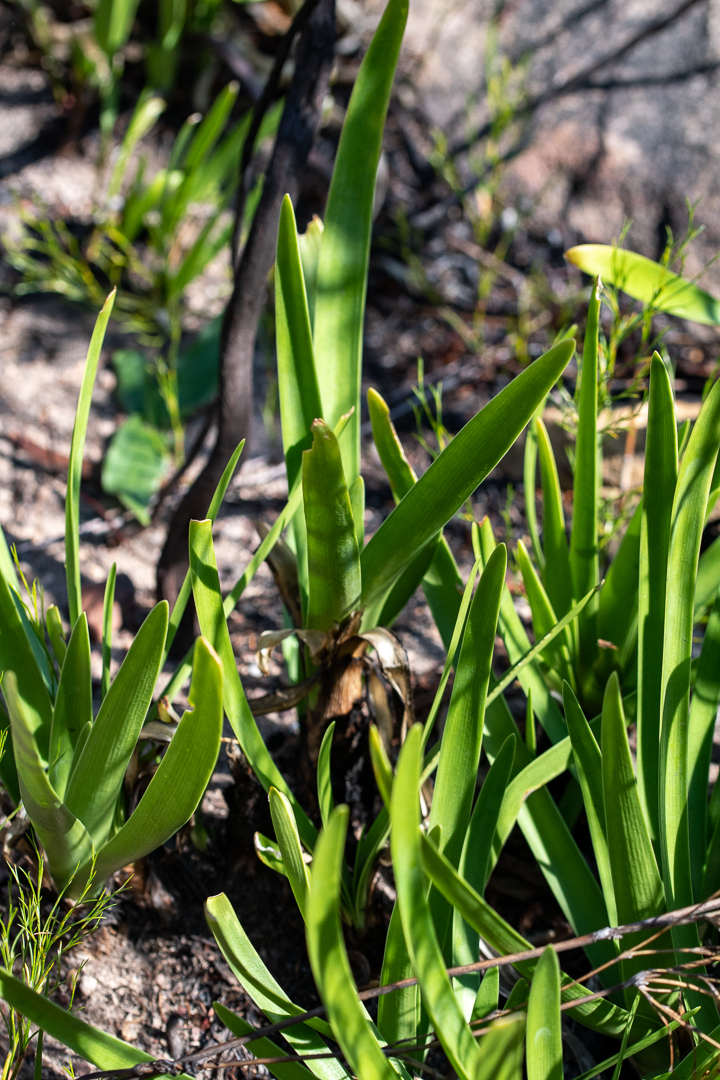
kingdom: Plantae
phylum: Tracheophyta
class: Liliopsida
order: Asparagales
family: Amaryllidaceae
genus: Agapanthus
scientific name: Agapanthus africanus
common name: Lily-of-the-nile
